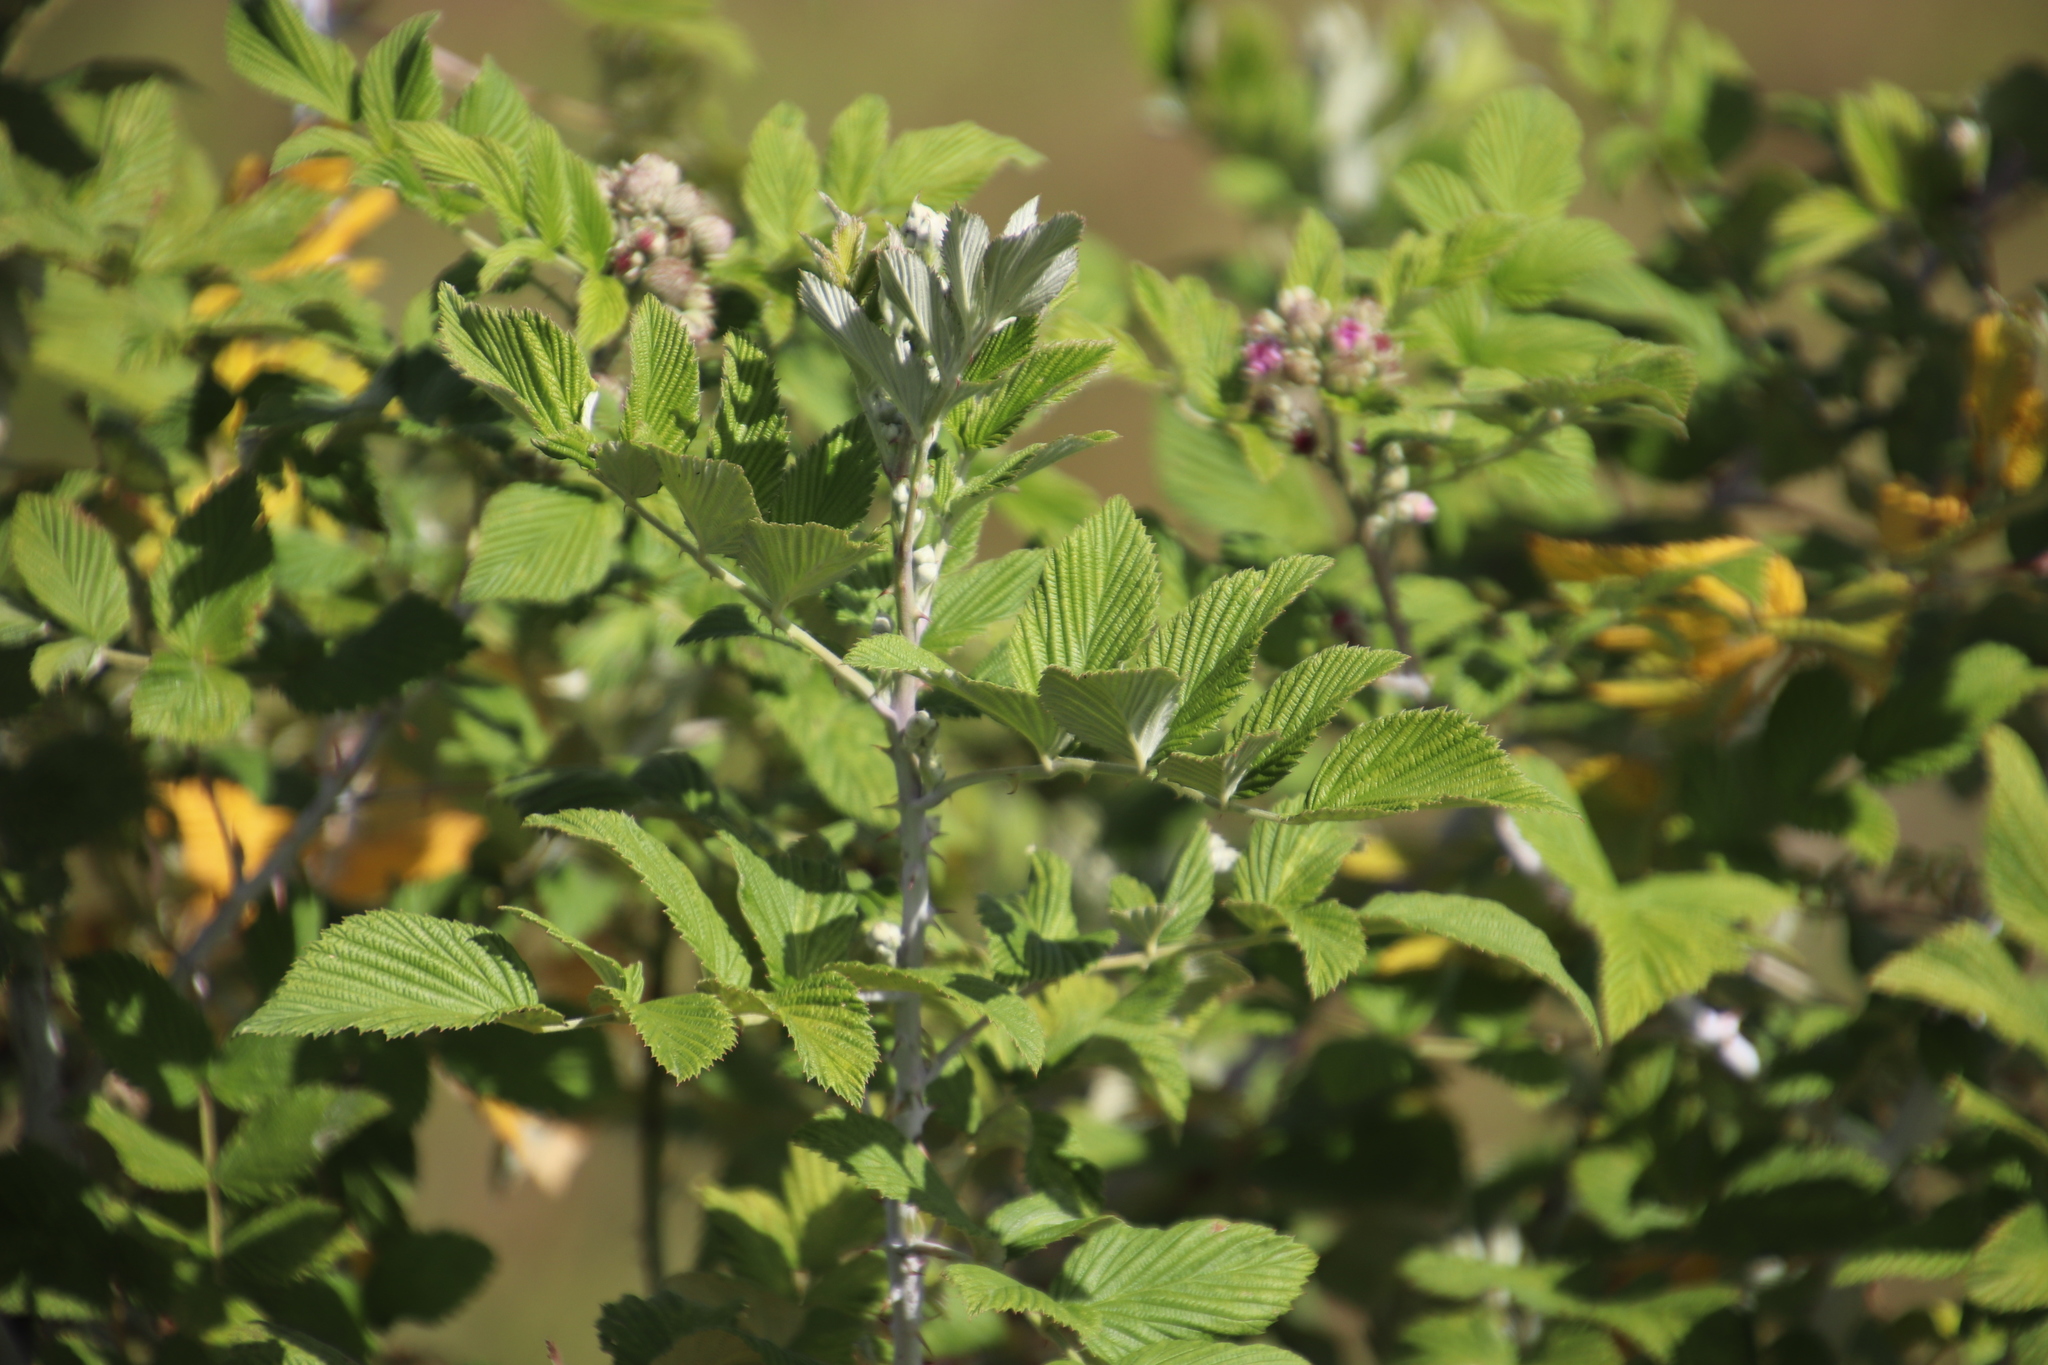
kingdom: Plantae
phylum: Tracheophyta
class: Magnoliopsida
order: Rosales
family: Rosaceae
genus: Rubus
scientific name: Rubus niveus
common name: Snowpeaks raspberry
